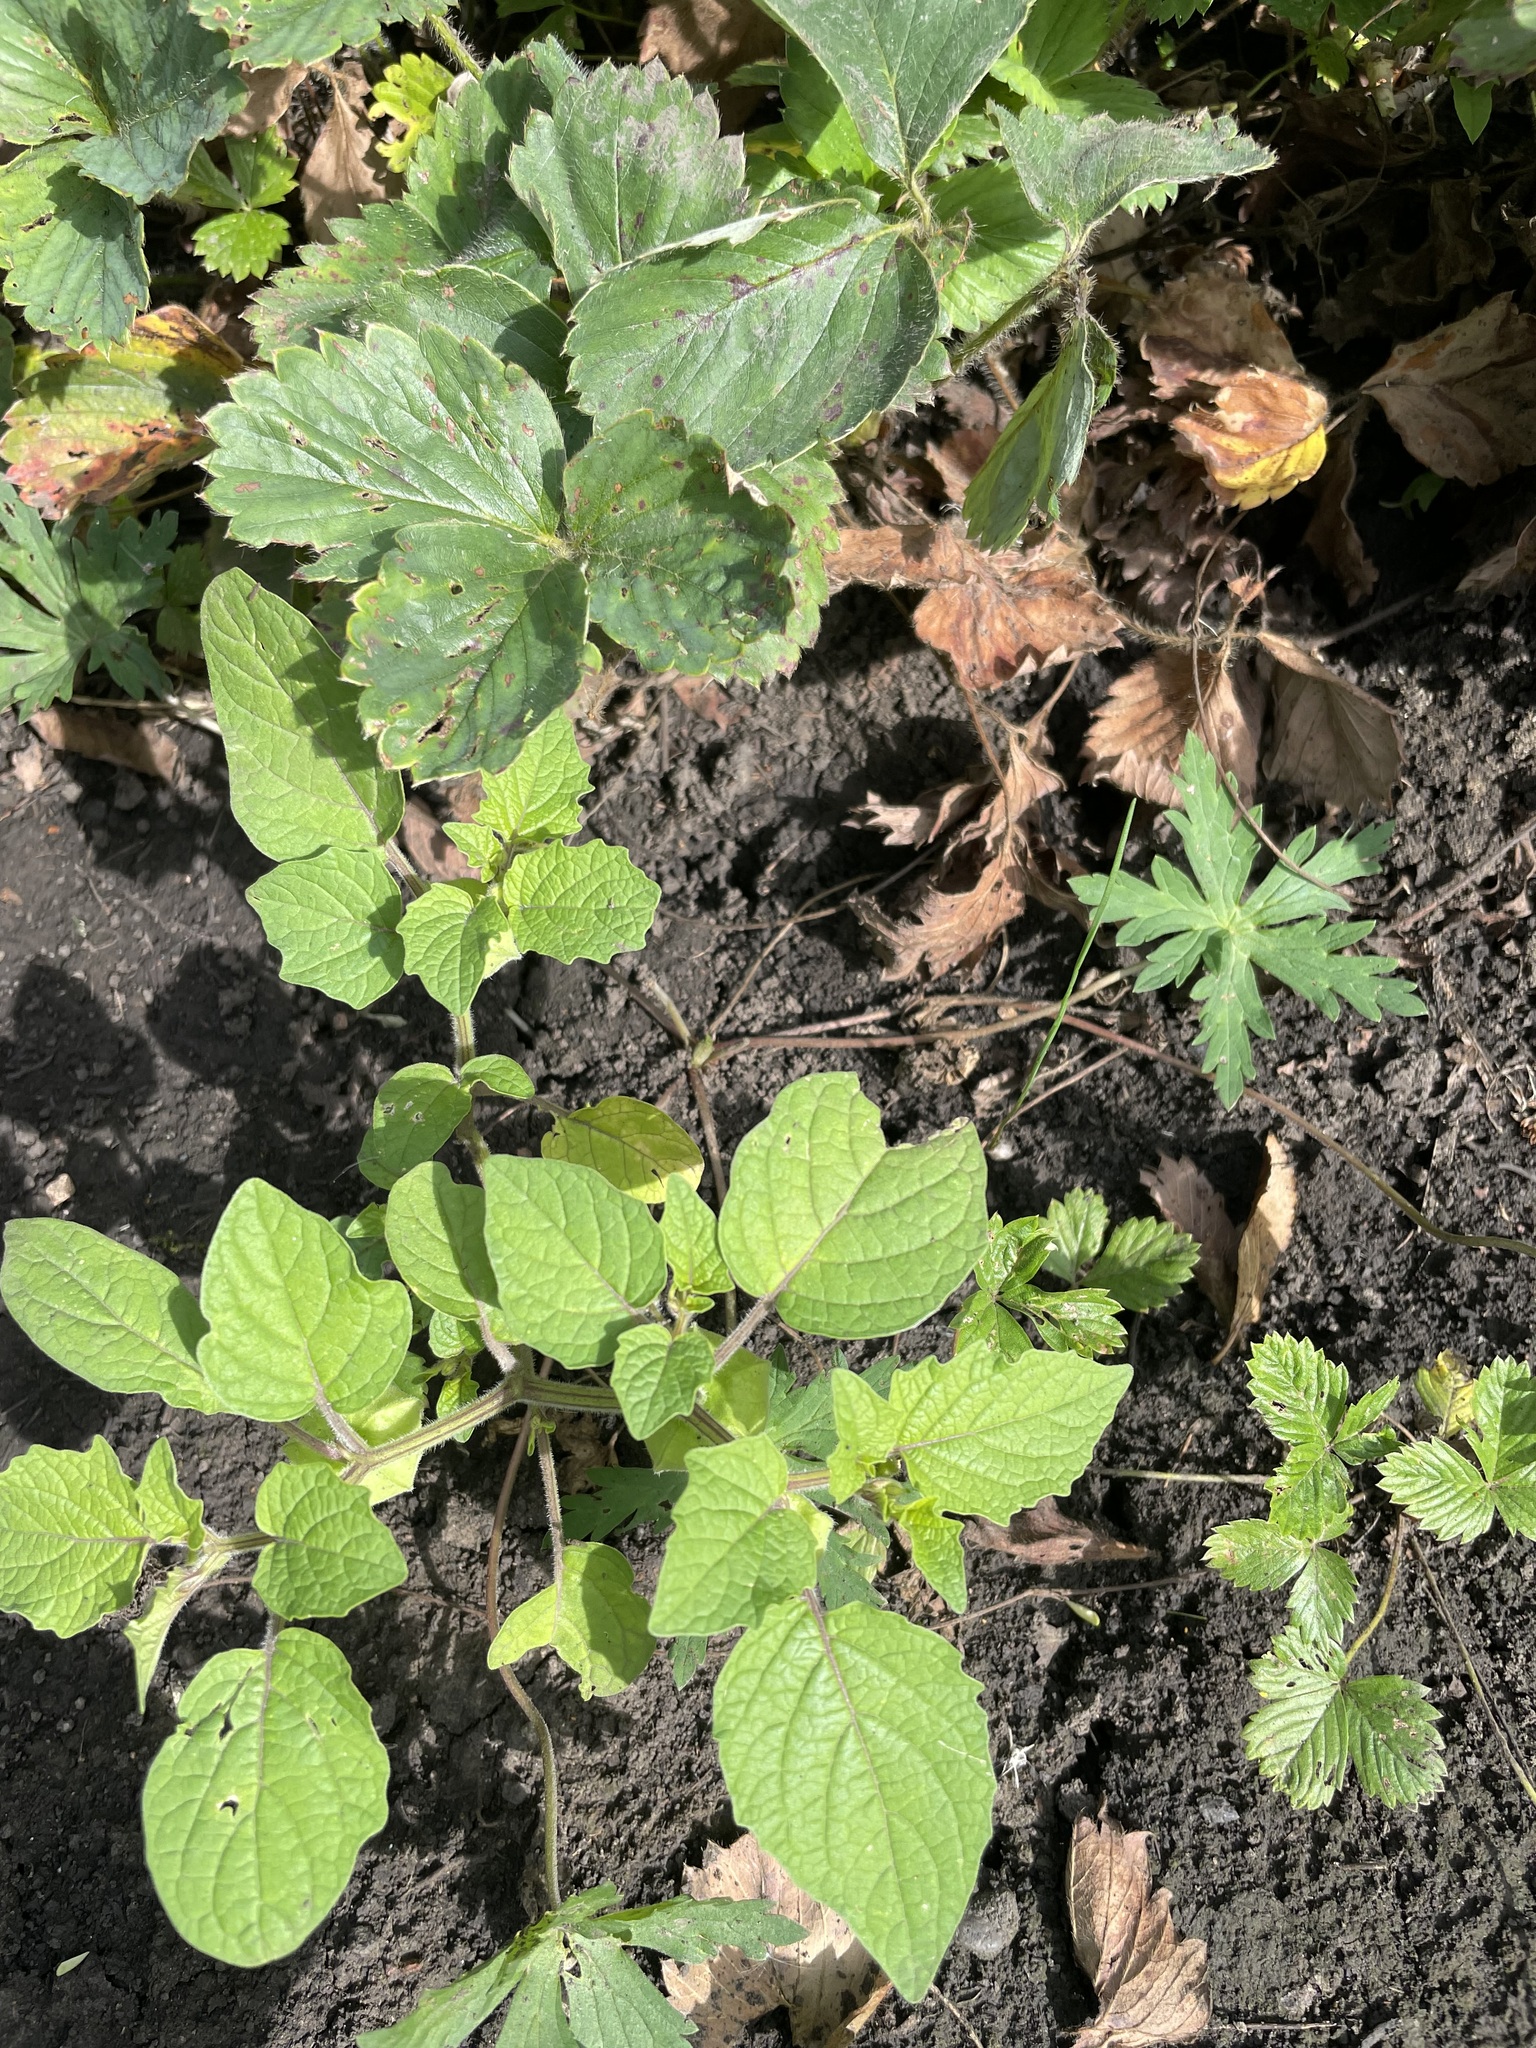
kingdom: Plantae
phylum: Tracheophyta
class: Magnoliopsida
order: Solanales
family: Solanaceae
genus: Alkekengi
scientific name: Alkekengi officinarum
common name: Japanese-lantern
